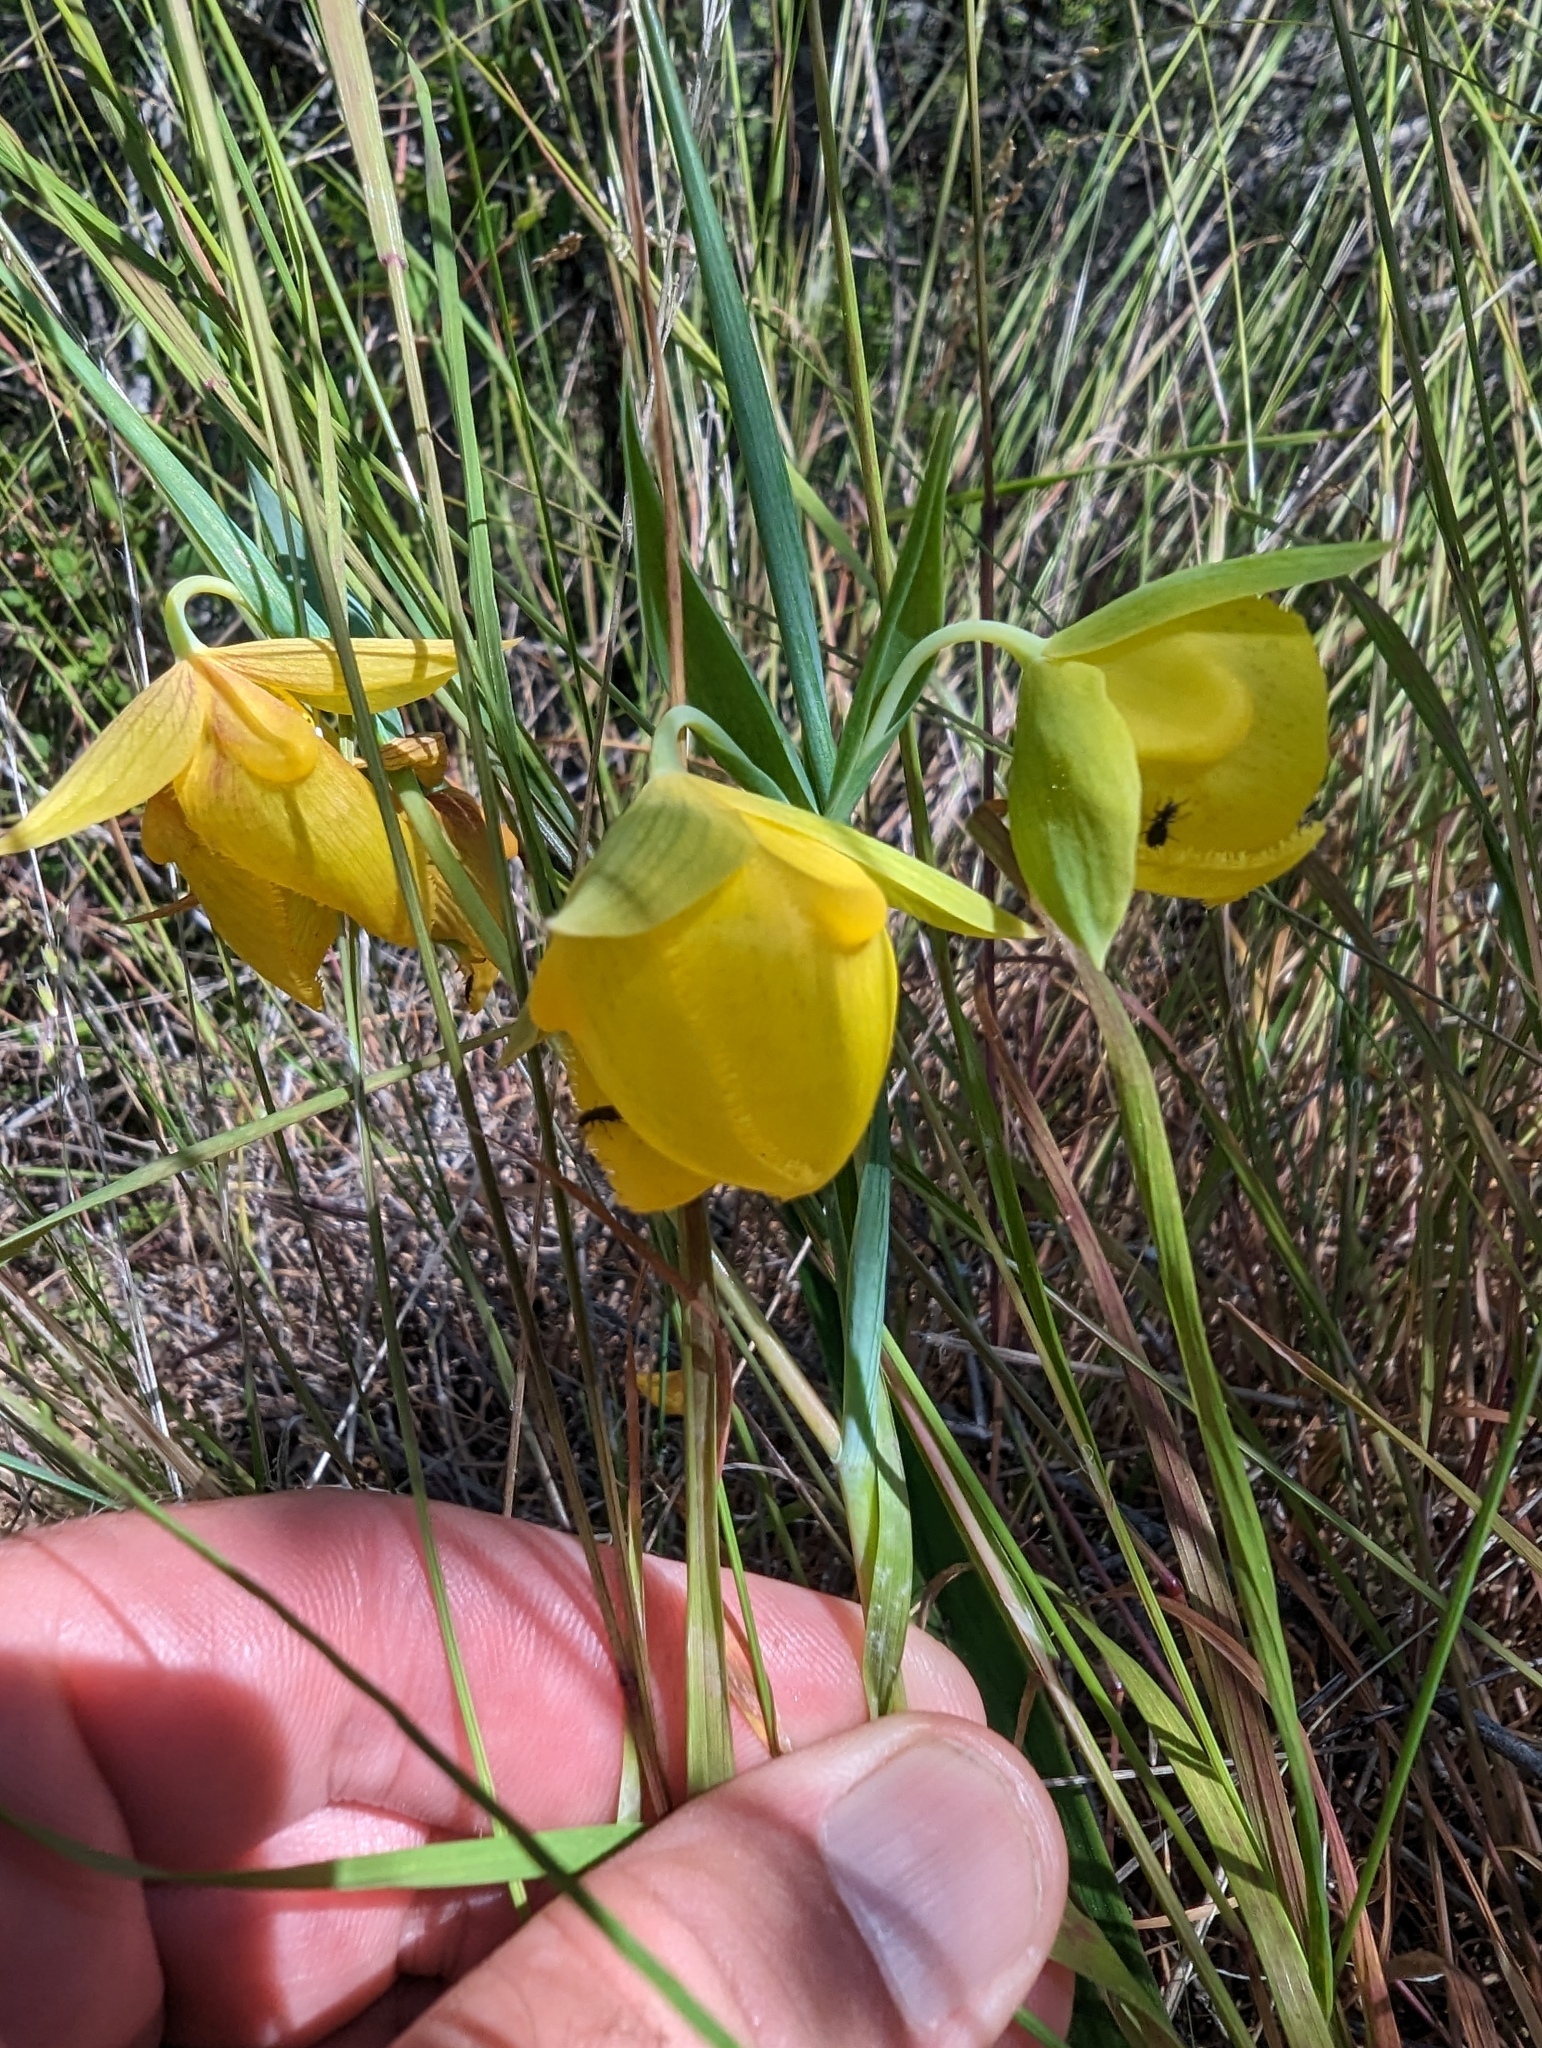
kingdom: Plantae
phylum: Tracheophyta
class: Liliopsida
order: Liliales
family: Liliaceae
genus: Calochortus
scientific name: Calochortus pulchellus
